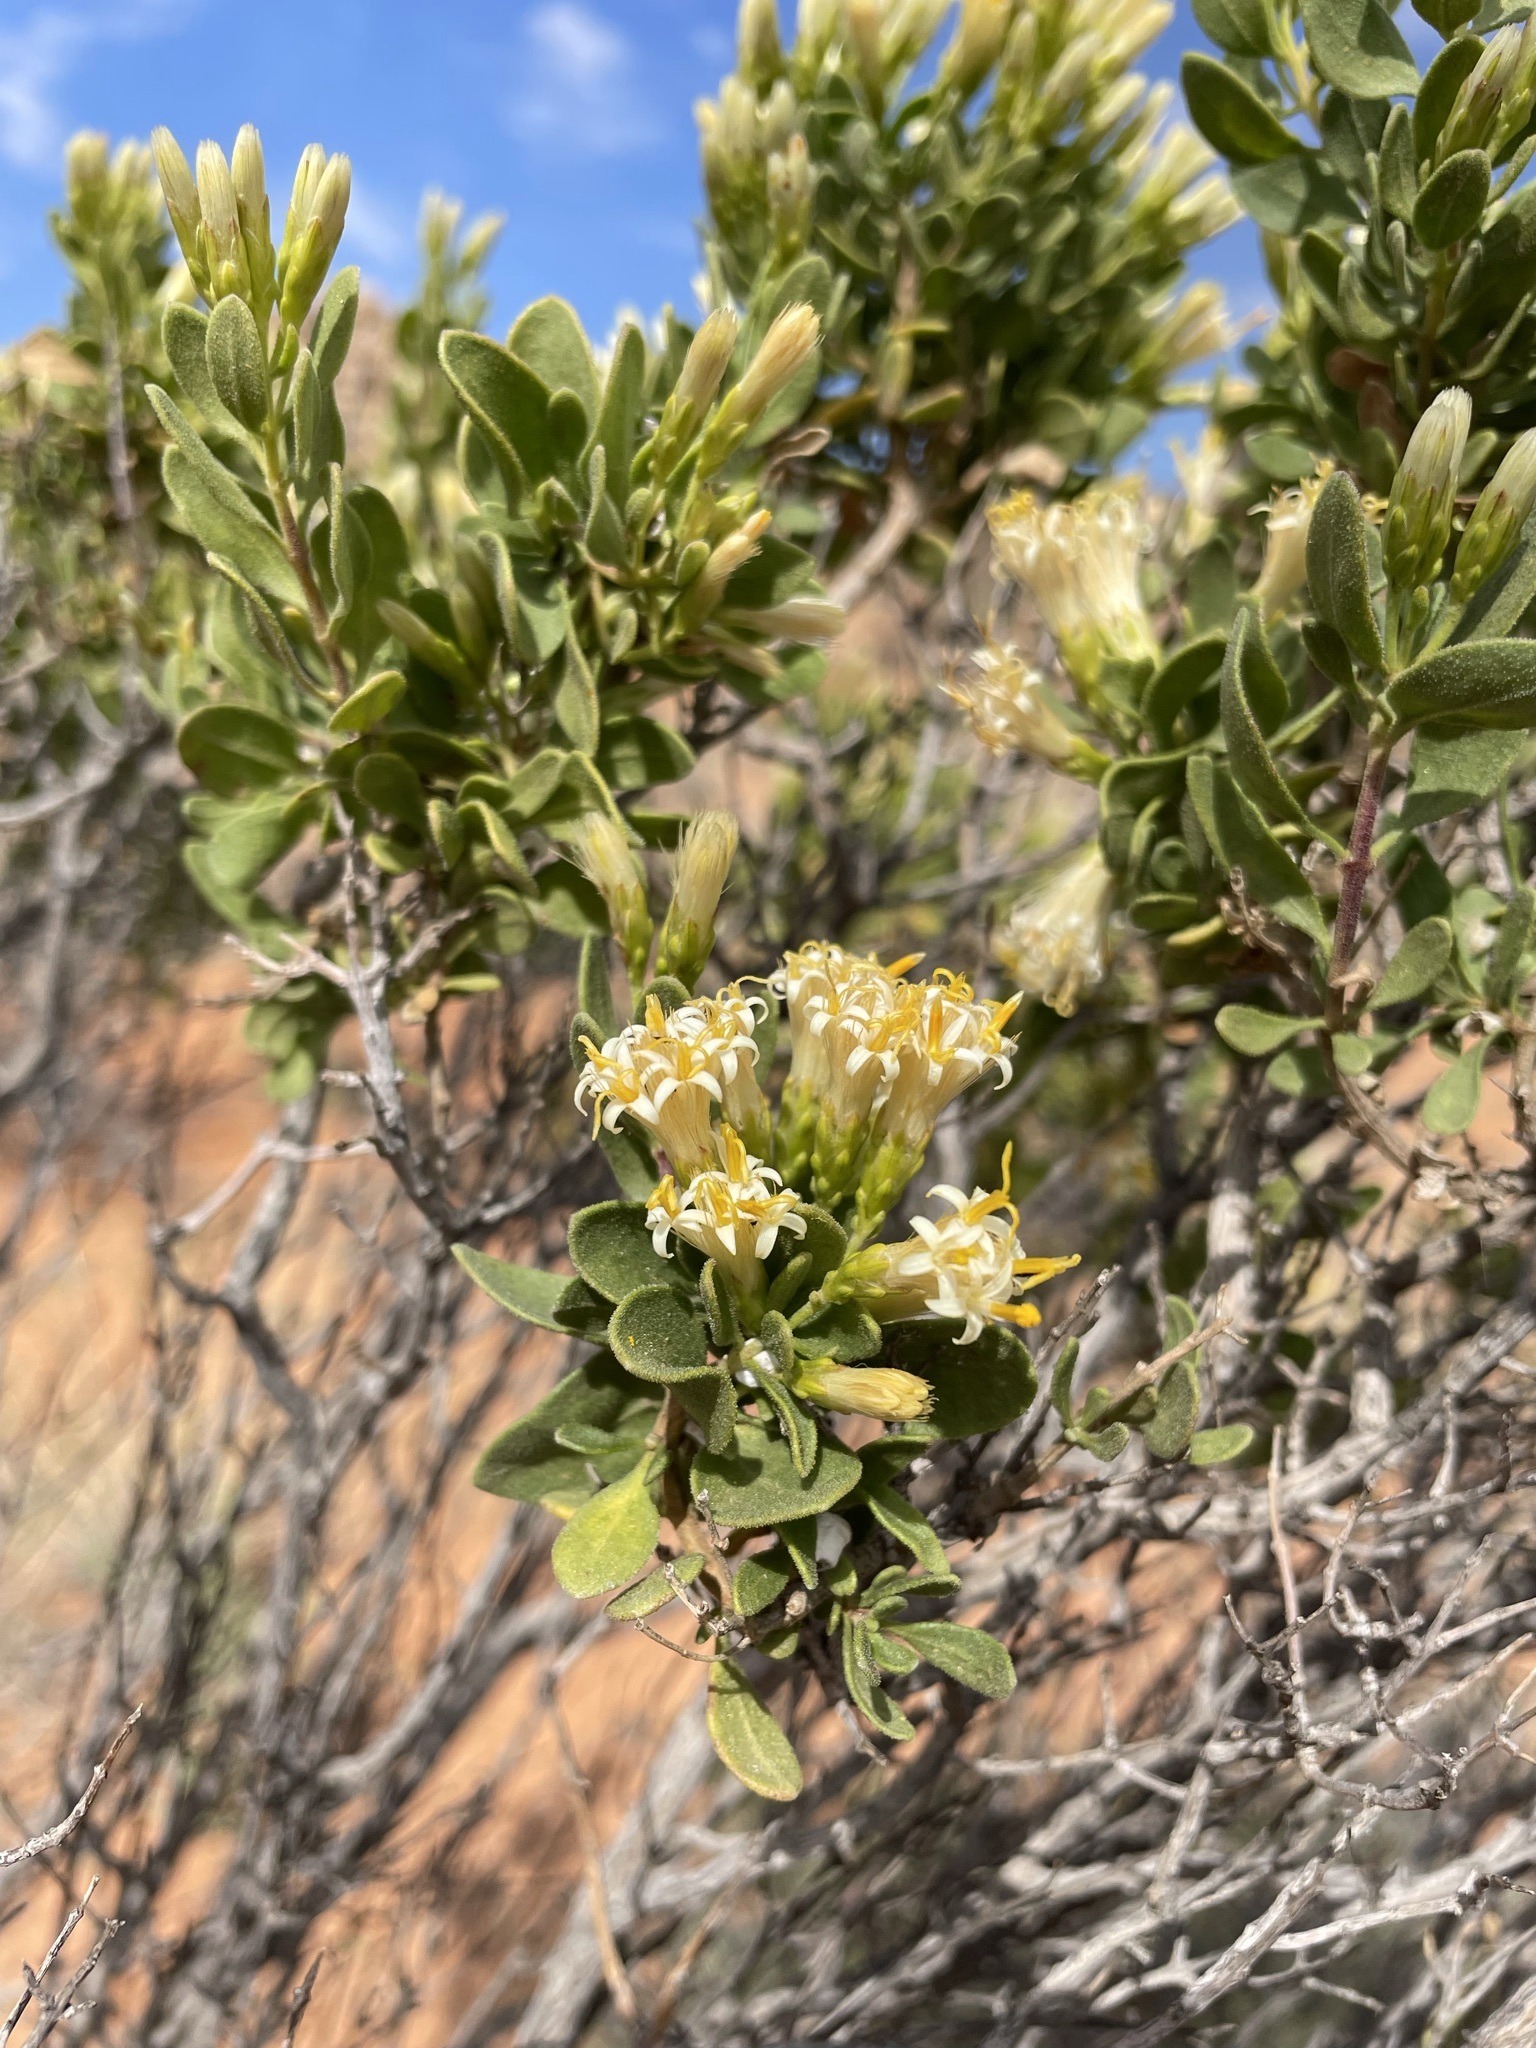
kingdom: Plantae
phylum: Tracheophyta
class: Magnoliopsida
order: Asterales
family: Asteraceae
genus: Pteronia
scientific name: Pteronia divaricata
